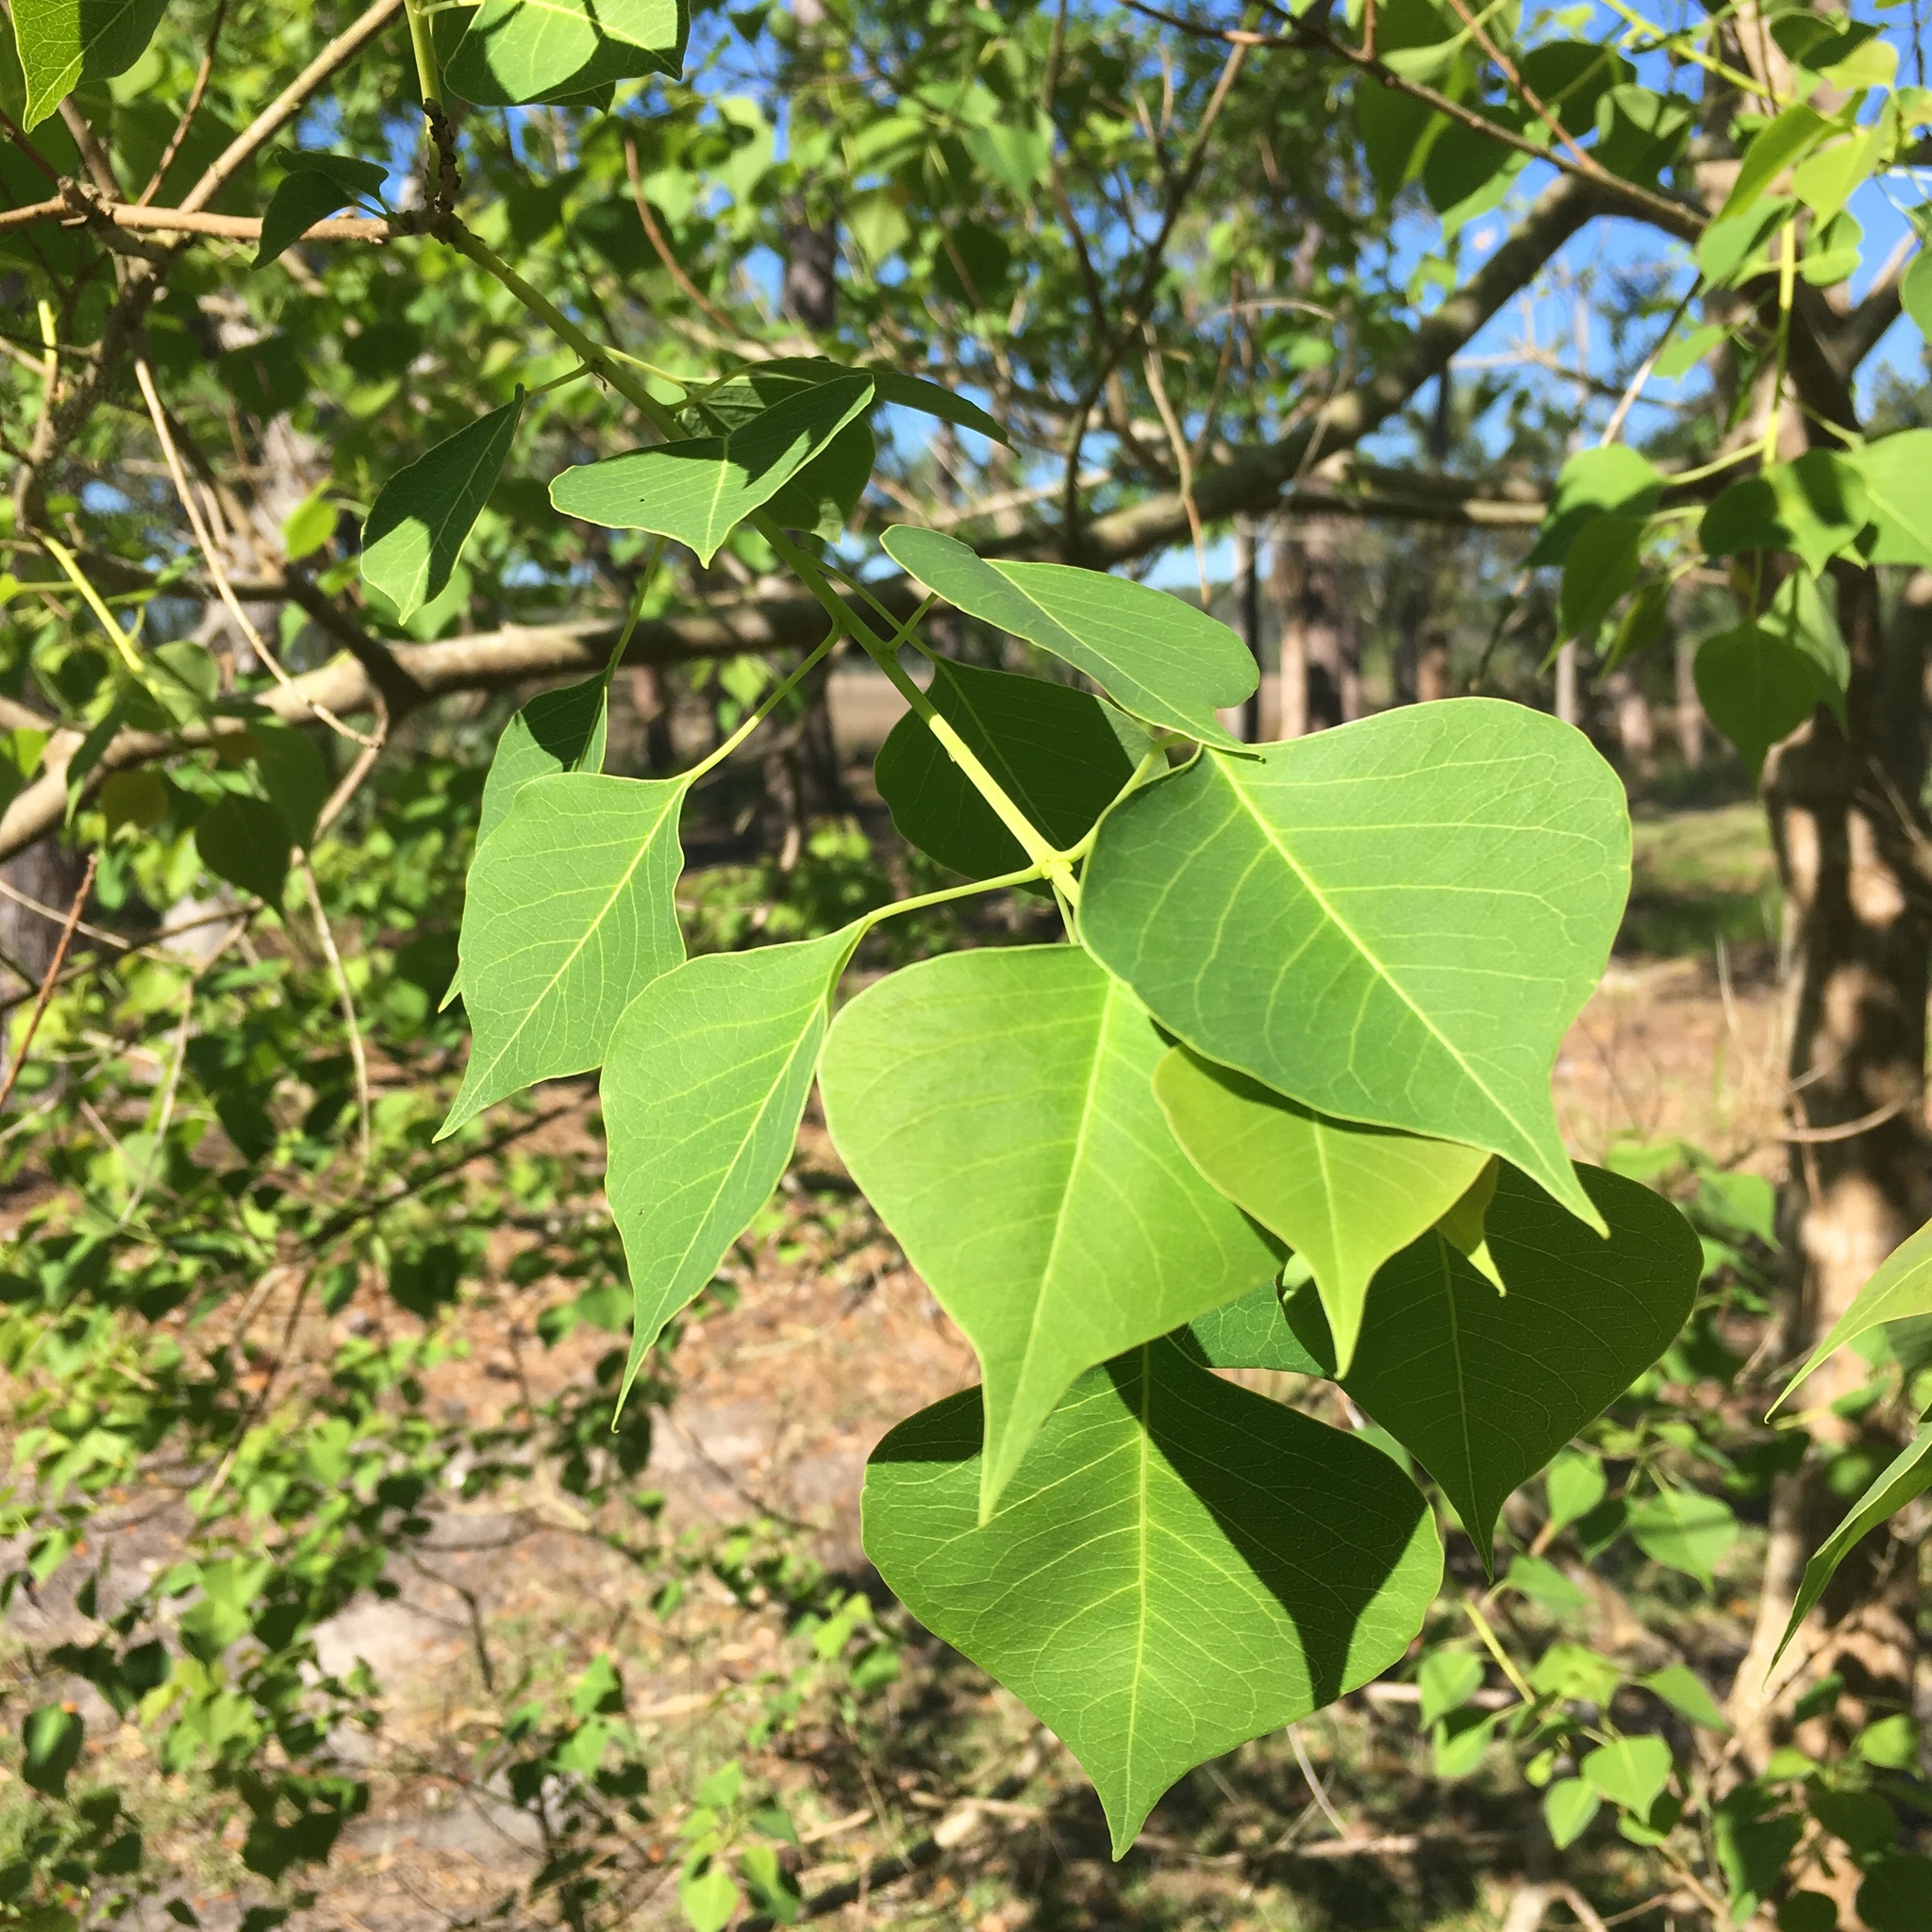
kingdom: Plantae
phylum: Tracheophyta
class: Magnoliopsida
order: Malpighiales
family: Euphorbiaceae
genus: Triadica
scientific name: Triadica sebifera
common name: Chinese tallow
